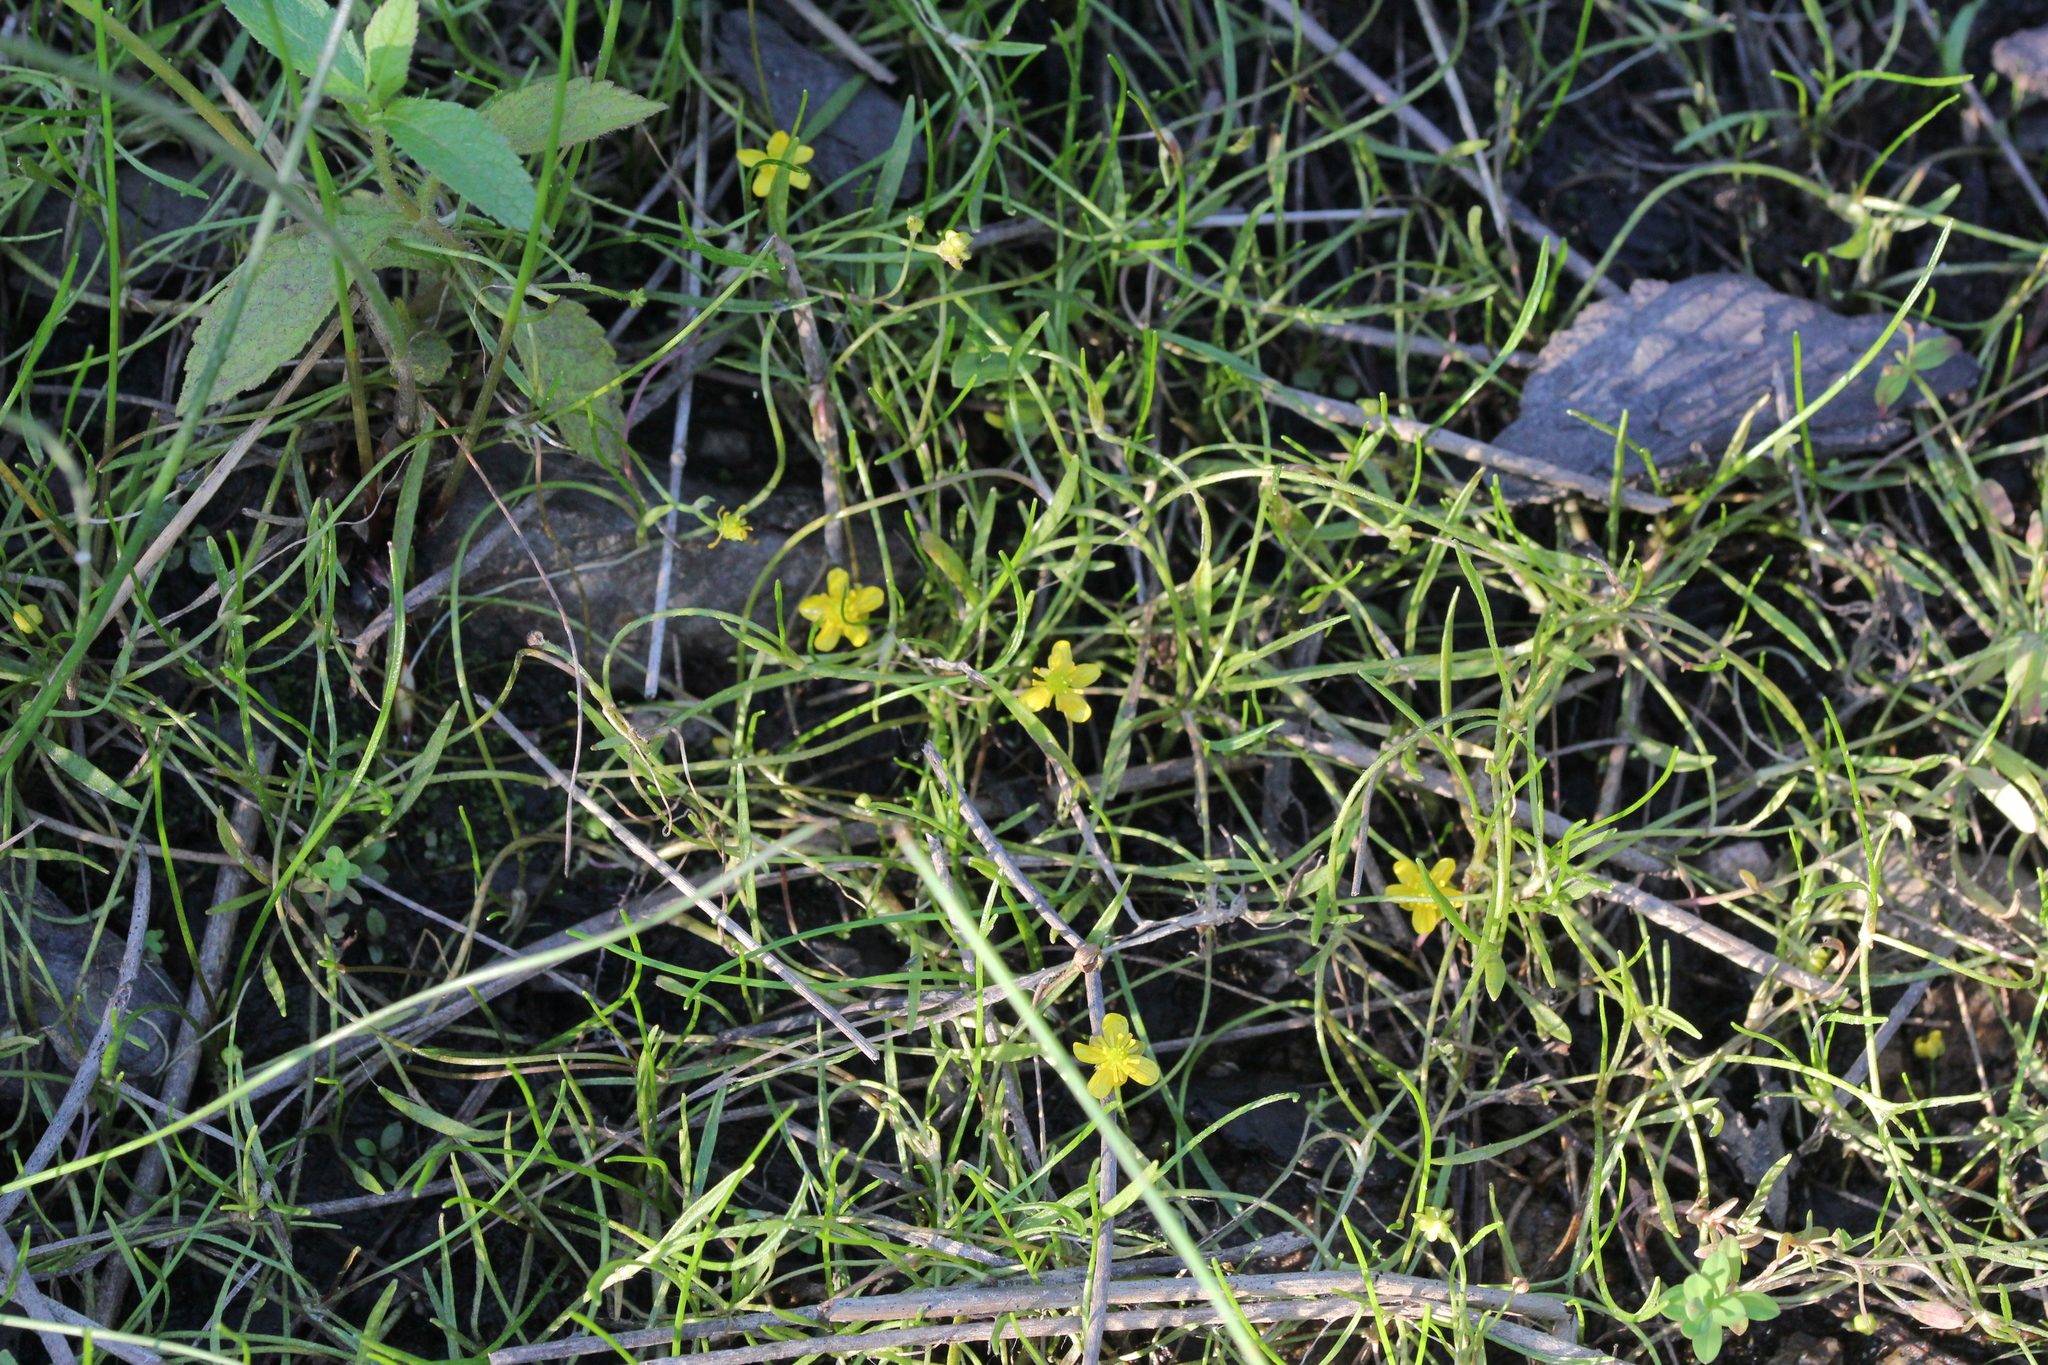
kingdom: Plantae
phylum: Tracheophyta
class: Magnoliopsida
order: Ranunculales
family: Ranunculaceae
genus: Ranunculus
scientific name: Ranunculus flammula
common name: Lesser spearwort
